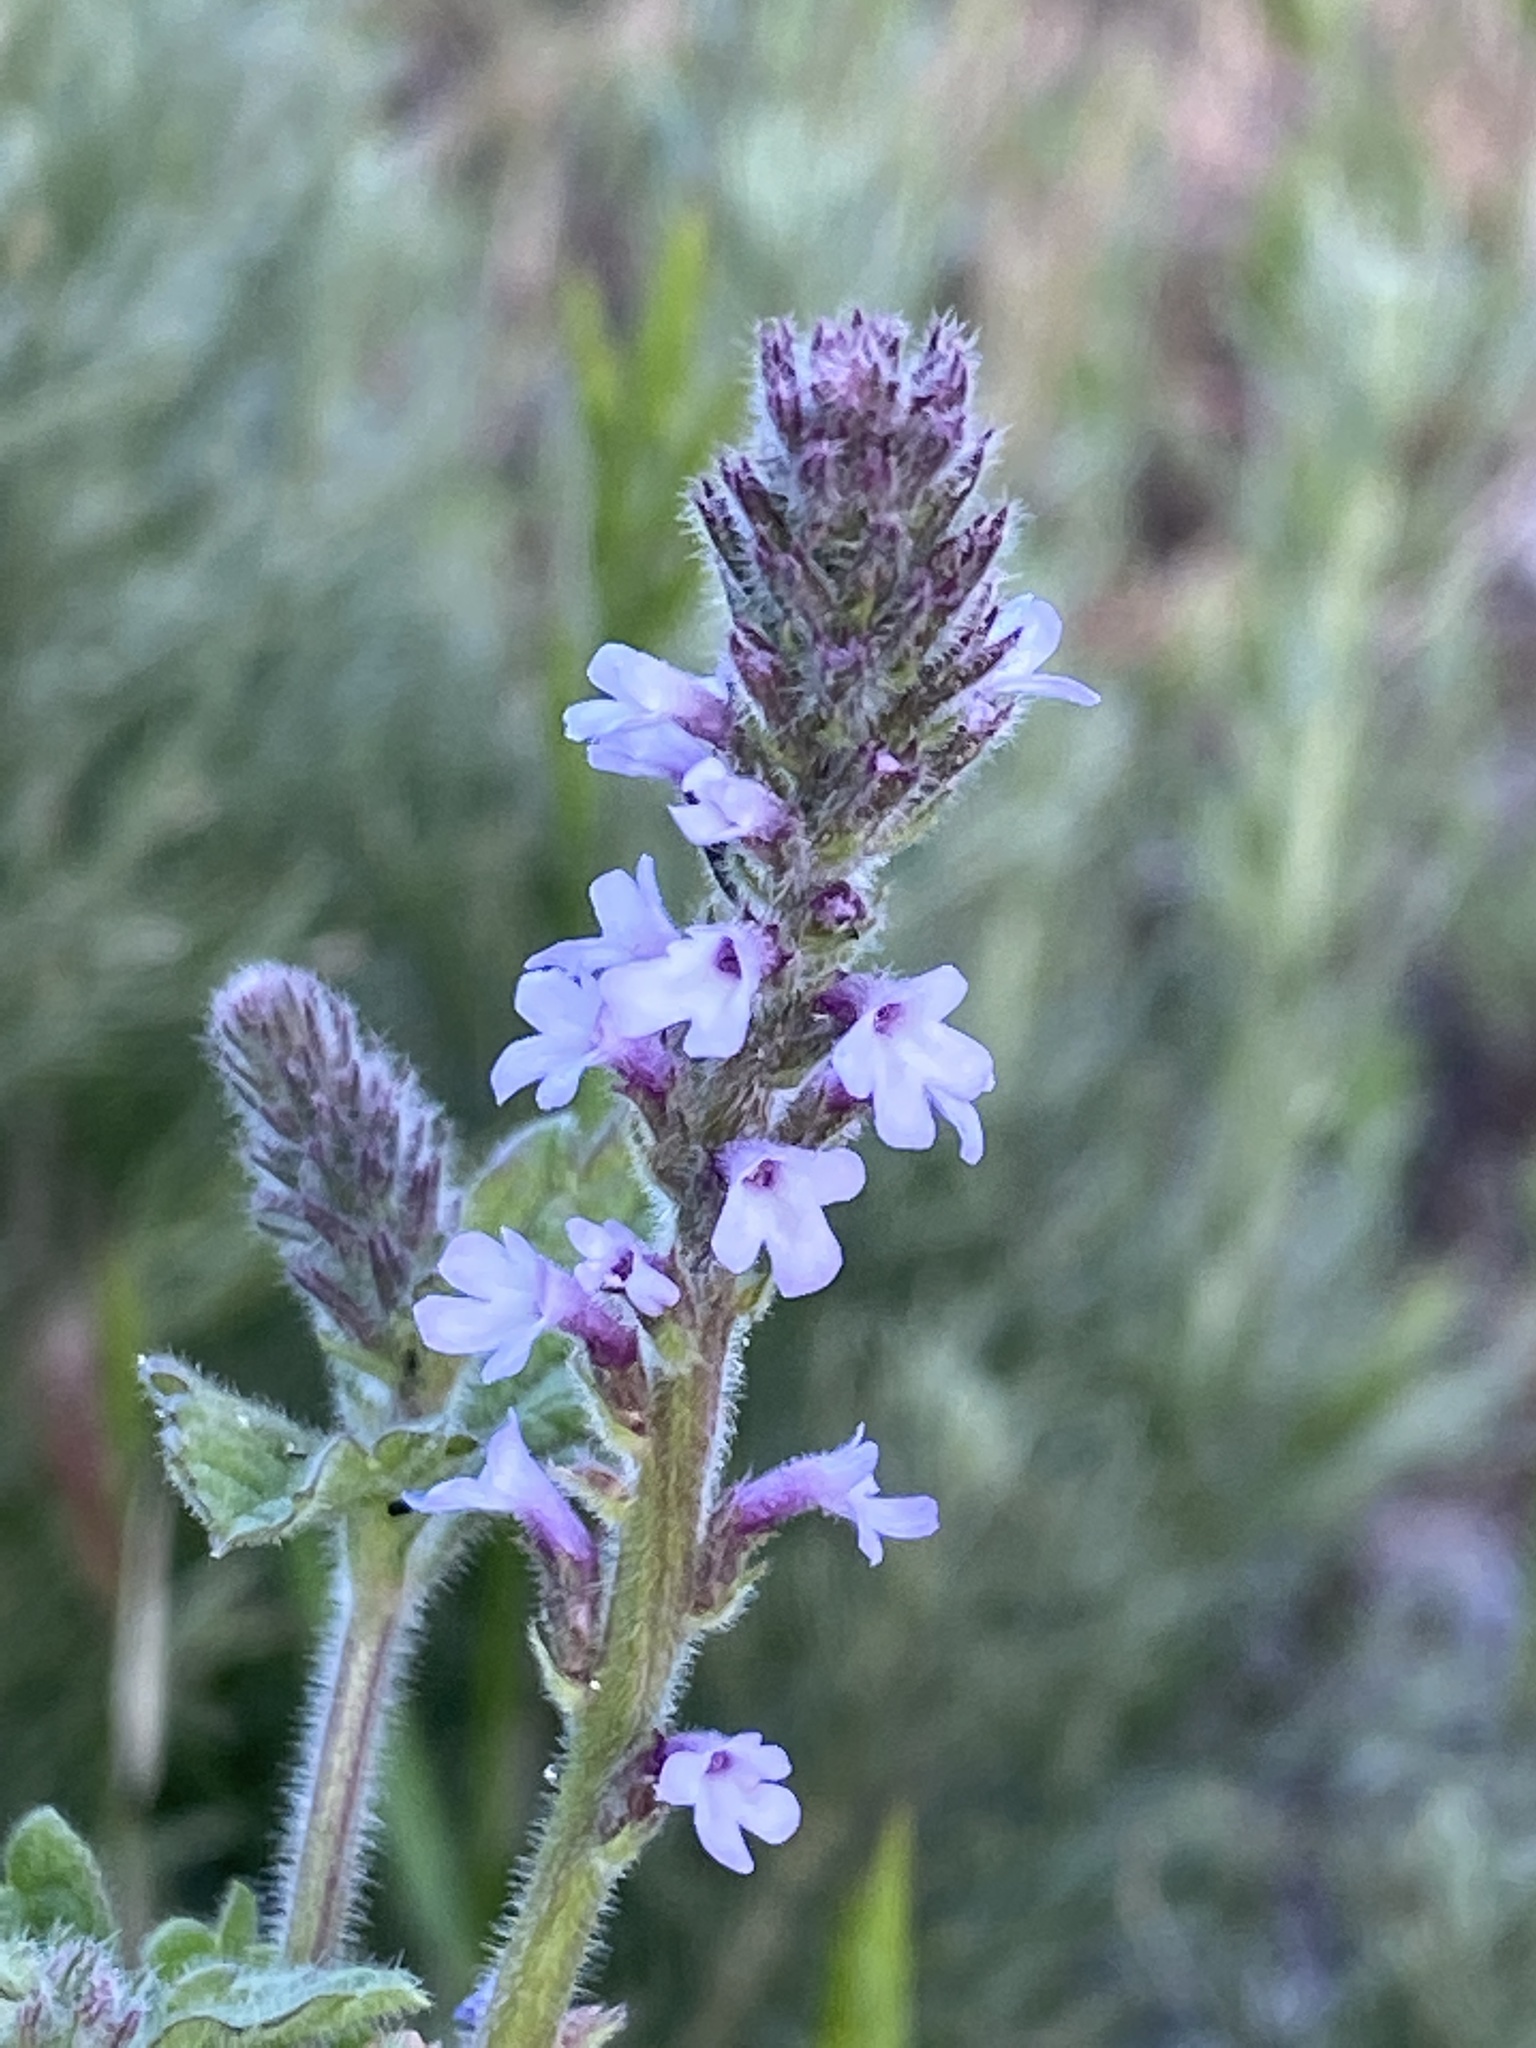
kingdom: Plantae
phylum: Tracheophyta
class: Magnoliopsida
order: Lamiales
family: Verbenaceae
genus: Verbena
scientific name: Verbena lasiostachys
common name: Vervain
